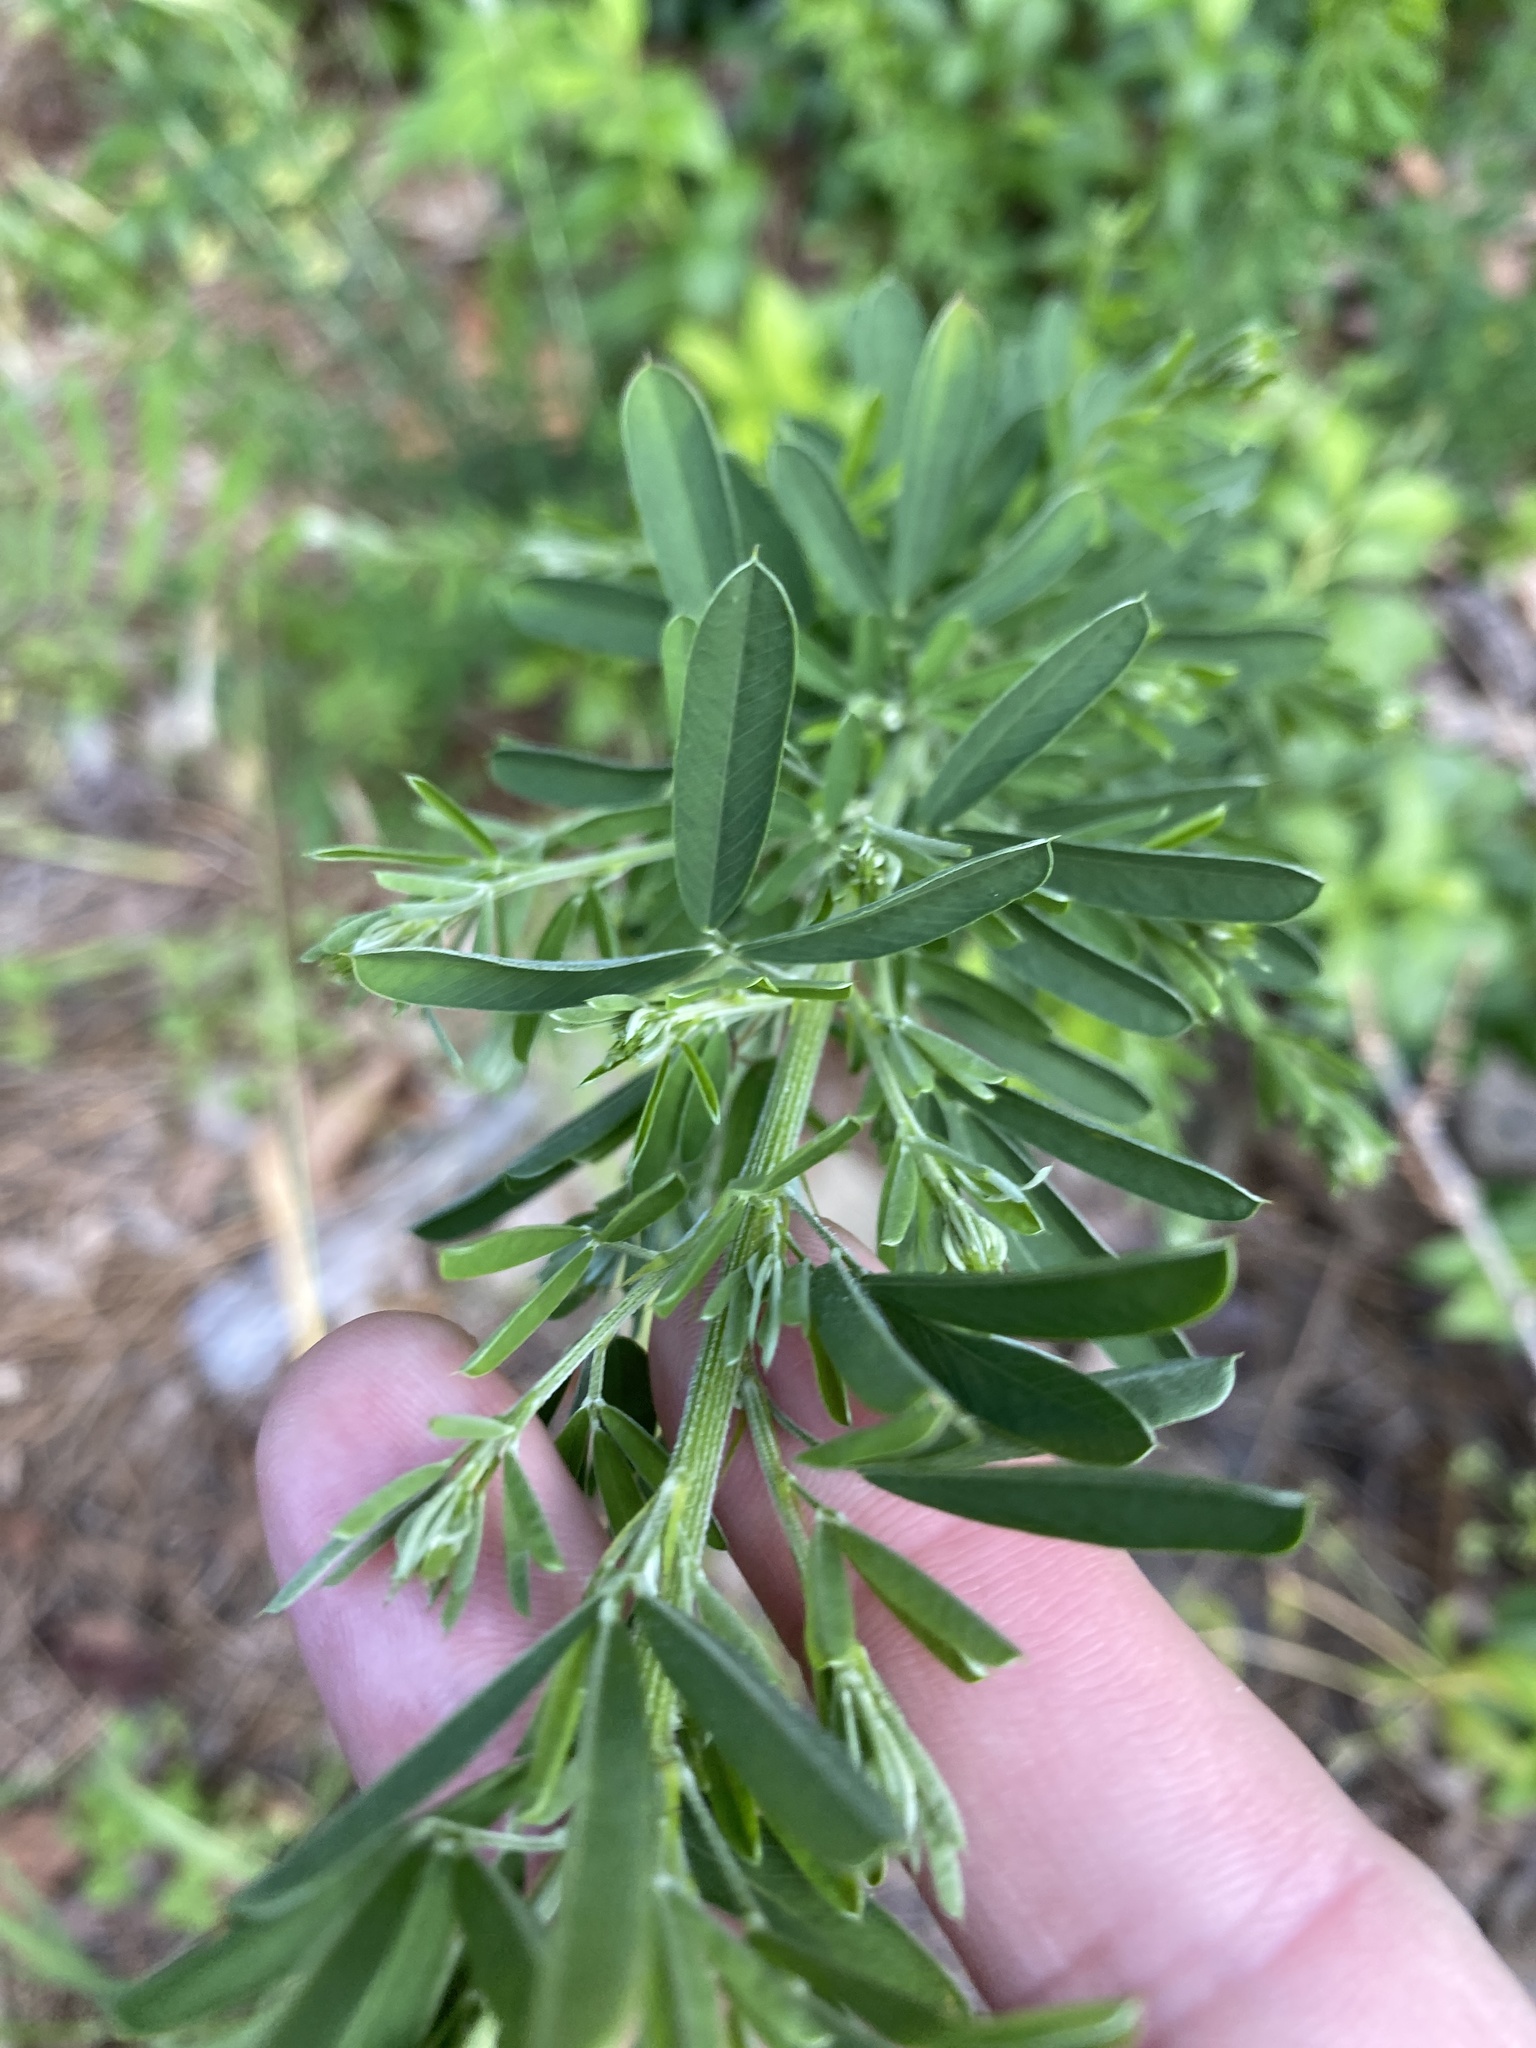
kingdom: Plantae
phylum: Tracheophyta
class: Magnoliopsida
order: Fabales
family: Fabaceae
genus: Lespedeza
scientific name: Lespedeza cuneata
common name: Chinese bush-clover
